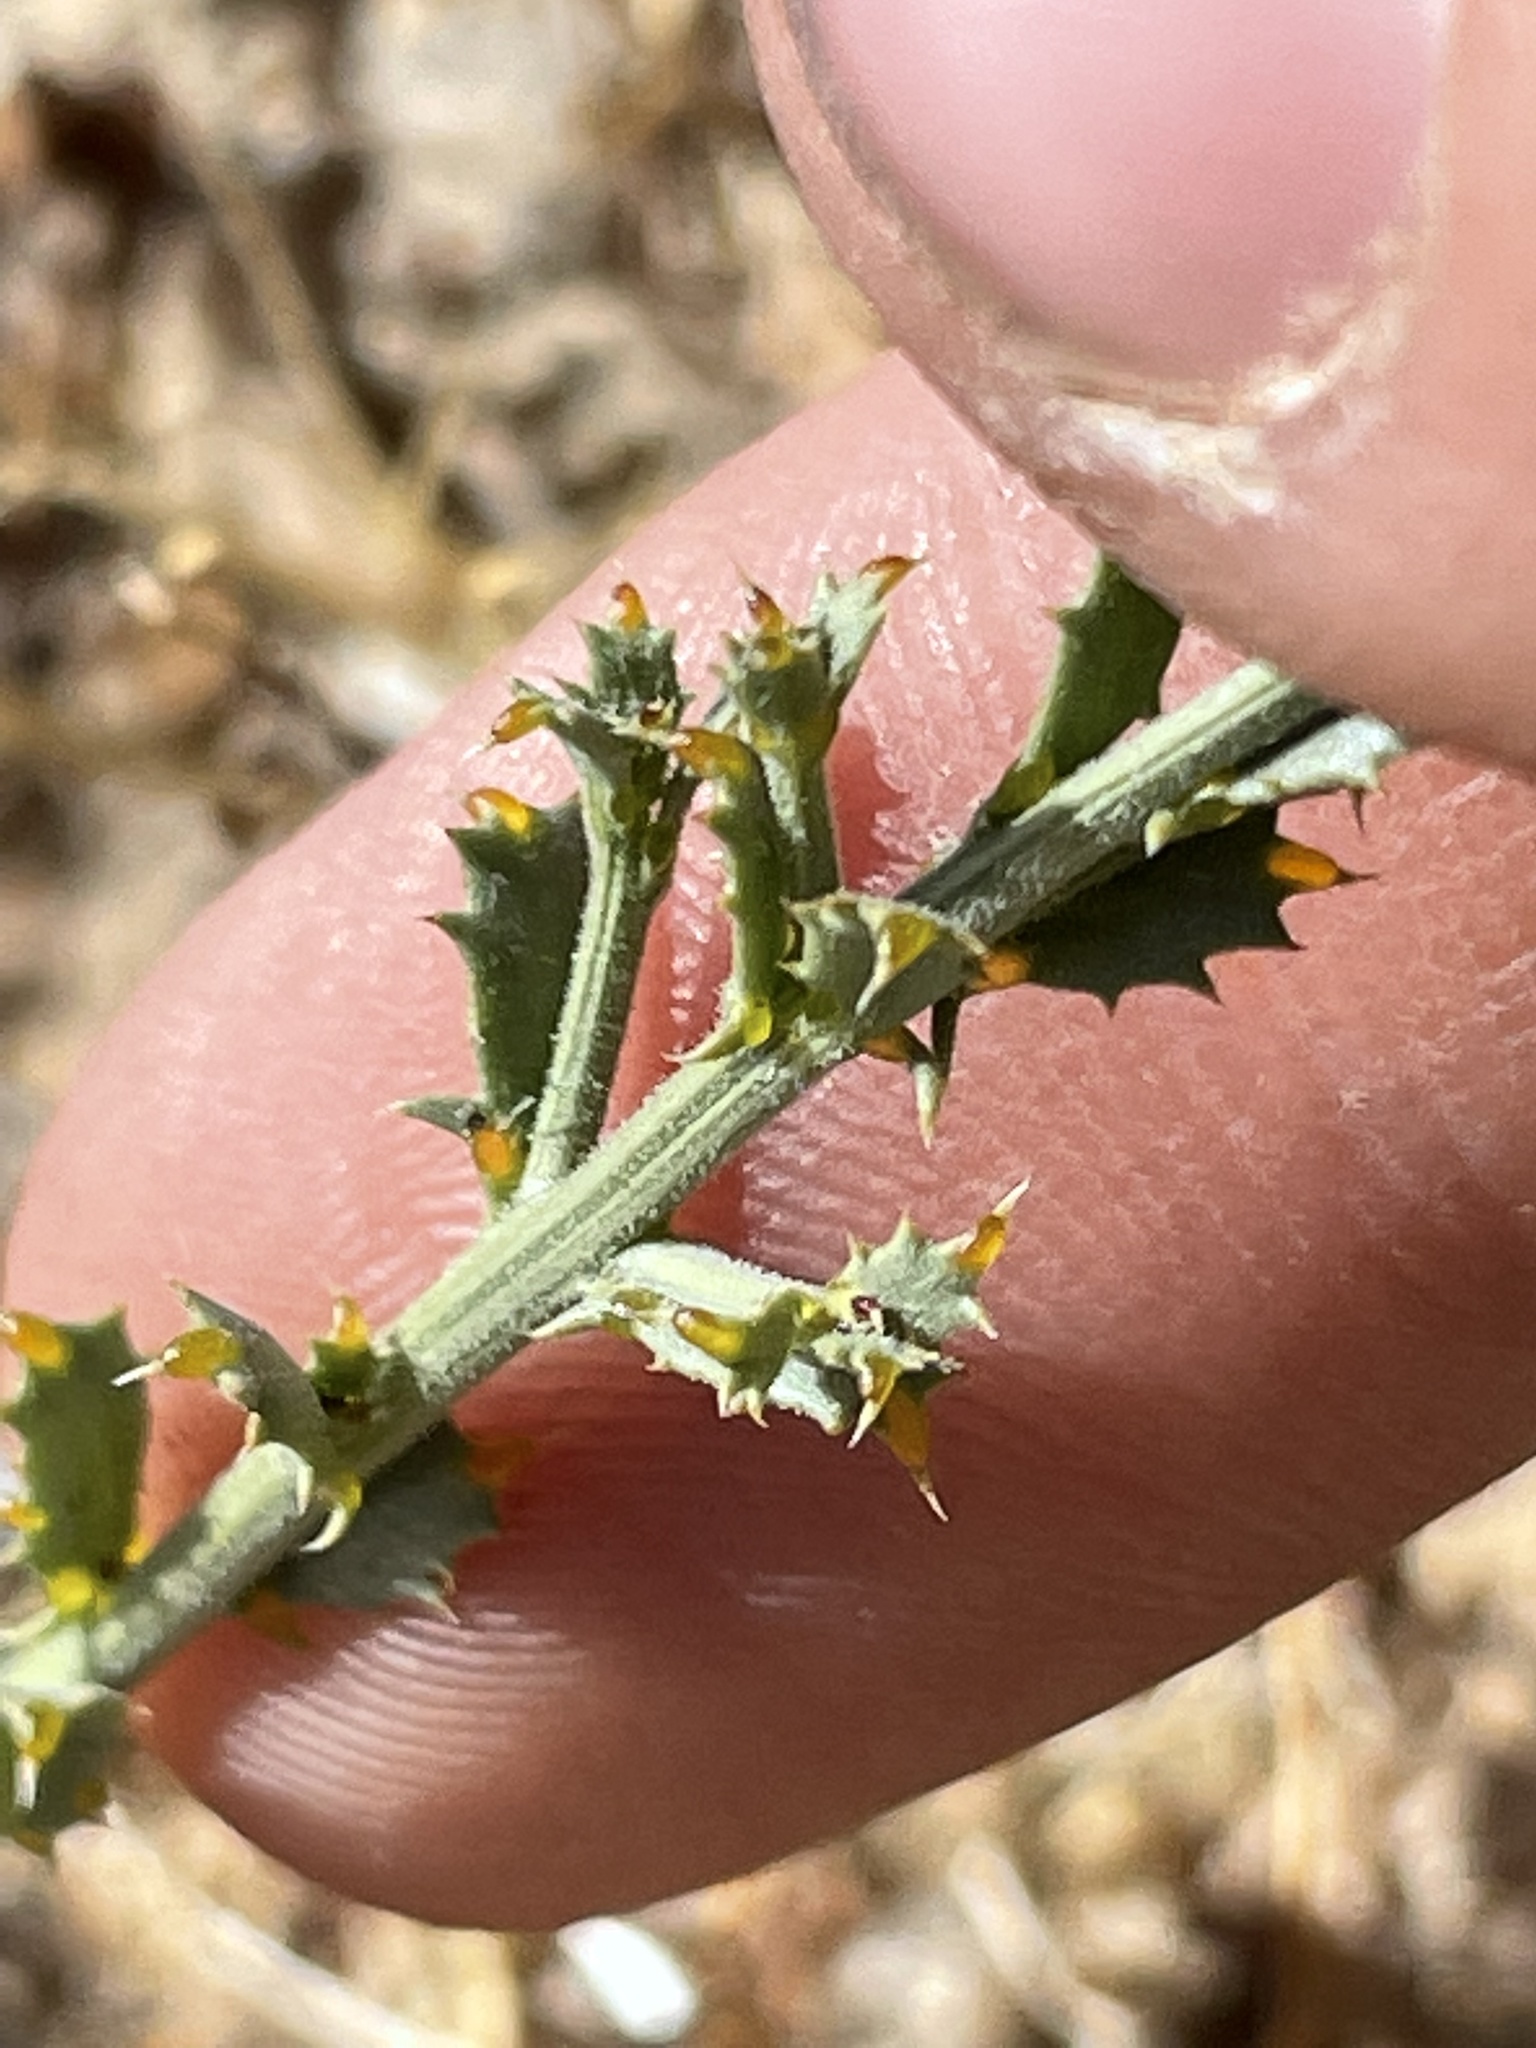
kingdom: Plantae
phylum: Tracheophyta
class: Magnoliopsida
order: Asterales
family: Asteraceae
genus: Adenophyllum
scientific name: Adenophyllum cooperi
